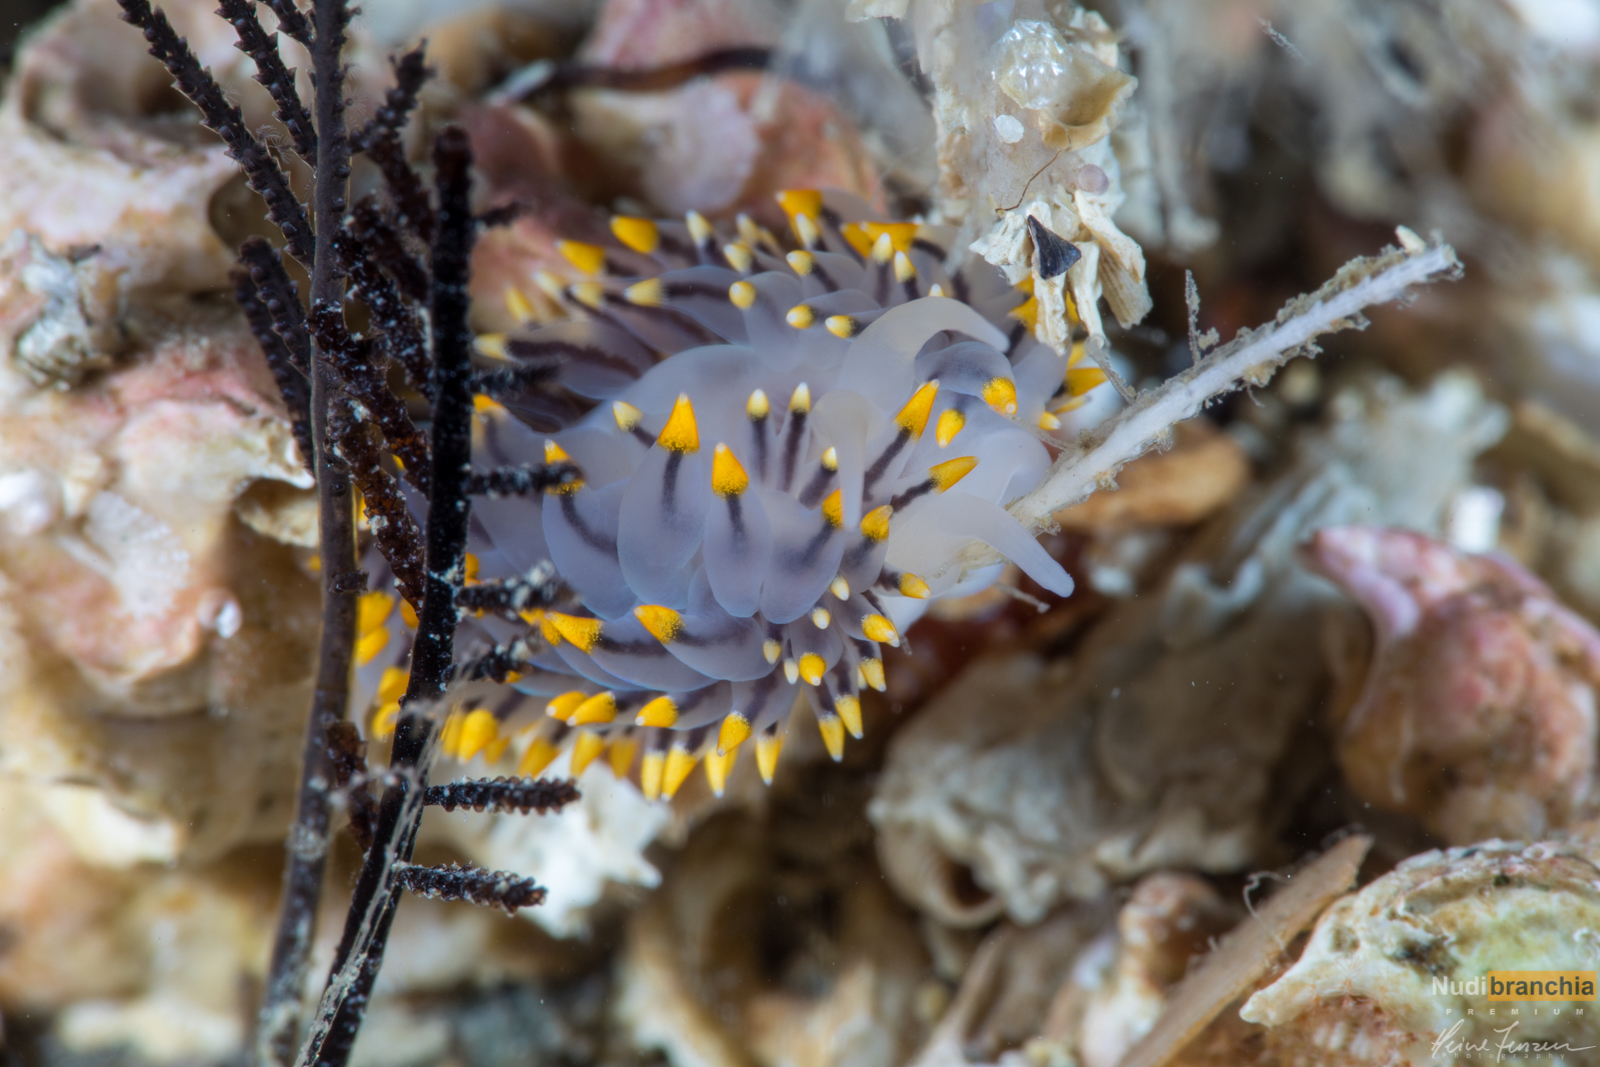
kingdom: Animalia
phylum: Mollusca
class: Gastropoda
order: Nudibranchia
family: Eubranchidae
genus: Eubranchus
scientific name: Eubranchus tricolor
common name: Painted balloon aeolis
